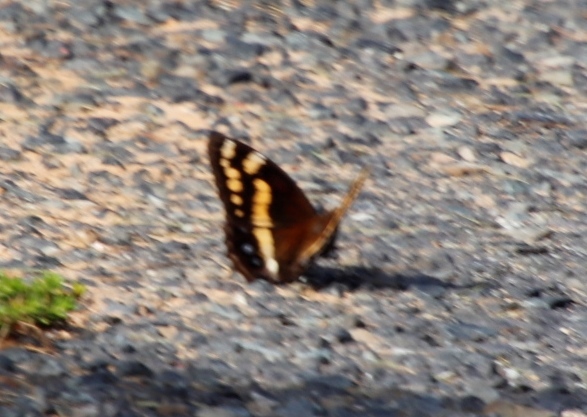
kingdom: Animalia
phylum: Arthropoda
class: Insecta
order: Lepidoptera
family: Nymphalidae
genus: Meneris
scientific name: Meneris Aeropetes tulbaghia
